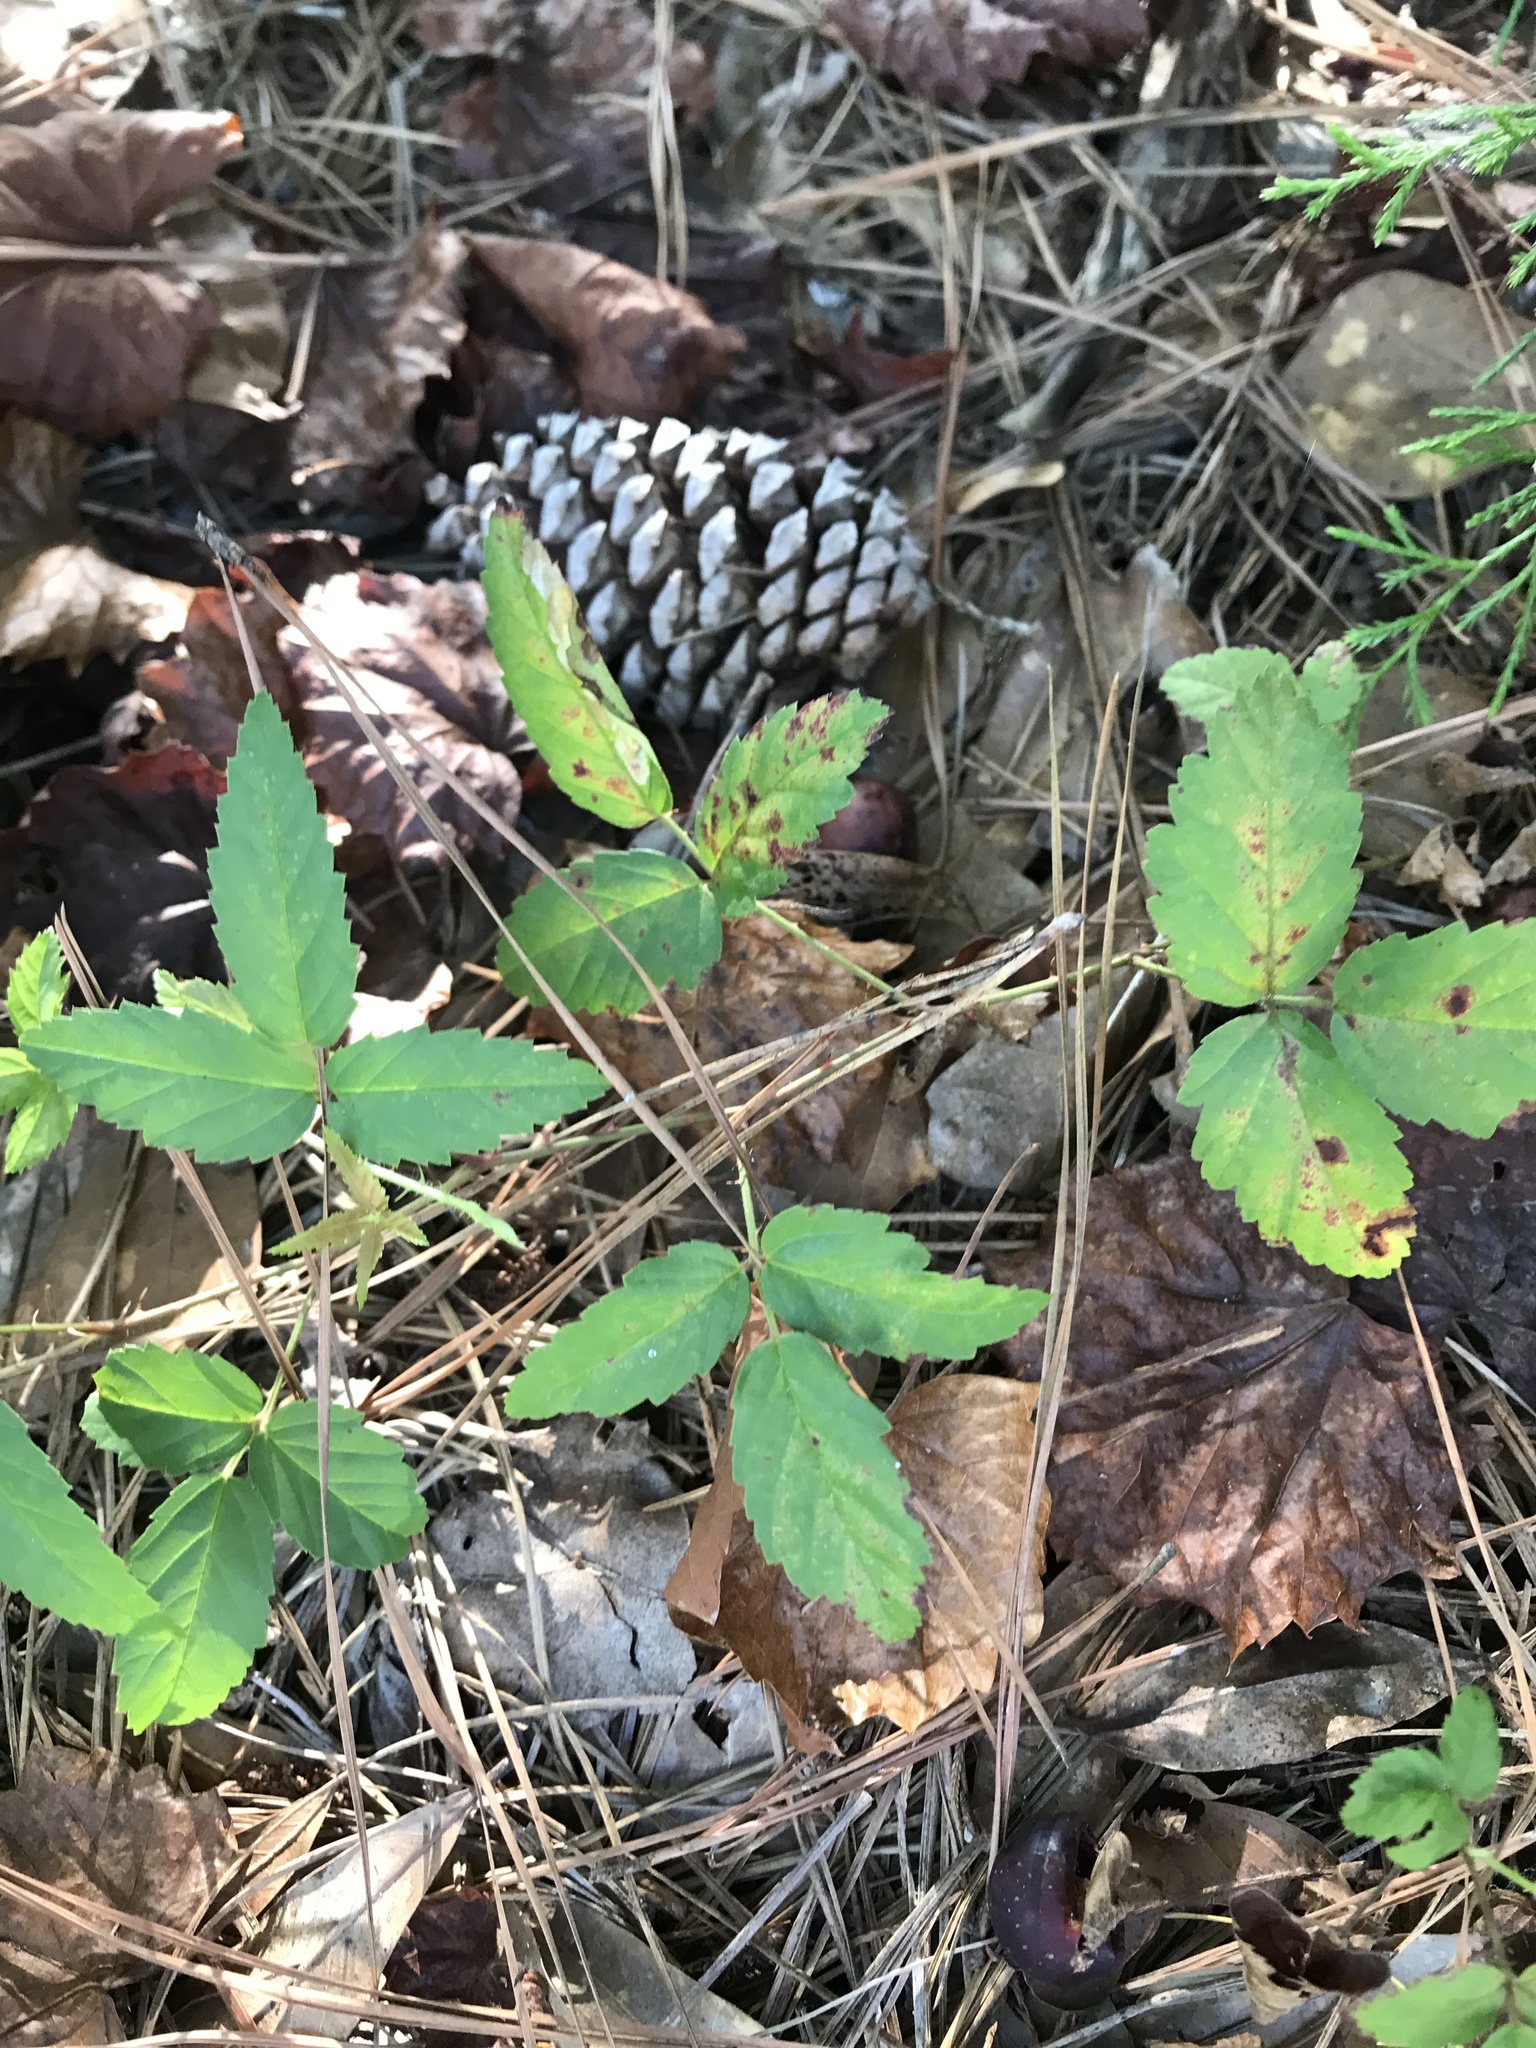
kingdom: Plantae
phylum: Tracheophyta
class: Magnoliopsida
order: Rosales
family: Rosaceae
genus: Rubus
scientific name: Rubus flagellaris
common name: American dewberry
